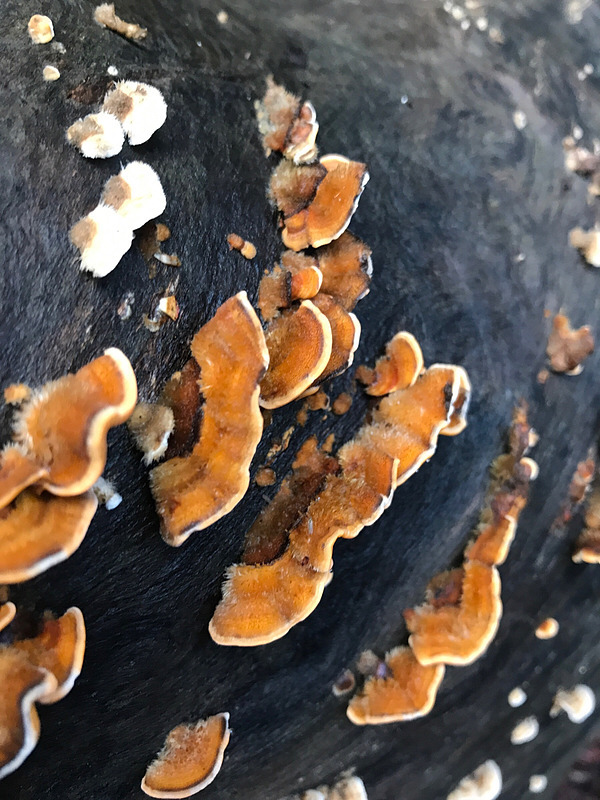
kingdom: Fungi
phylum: Basidiomycota
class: Agaricomycetes
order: Russulales
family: Stereaceae
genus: Stereum
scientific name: Stereum hirsutum
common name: Hairy curtain crust
